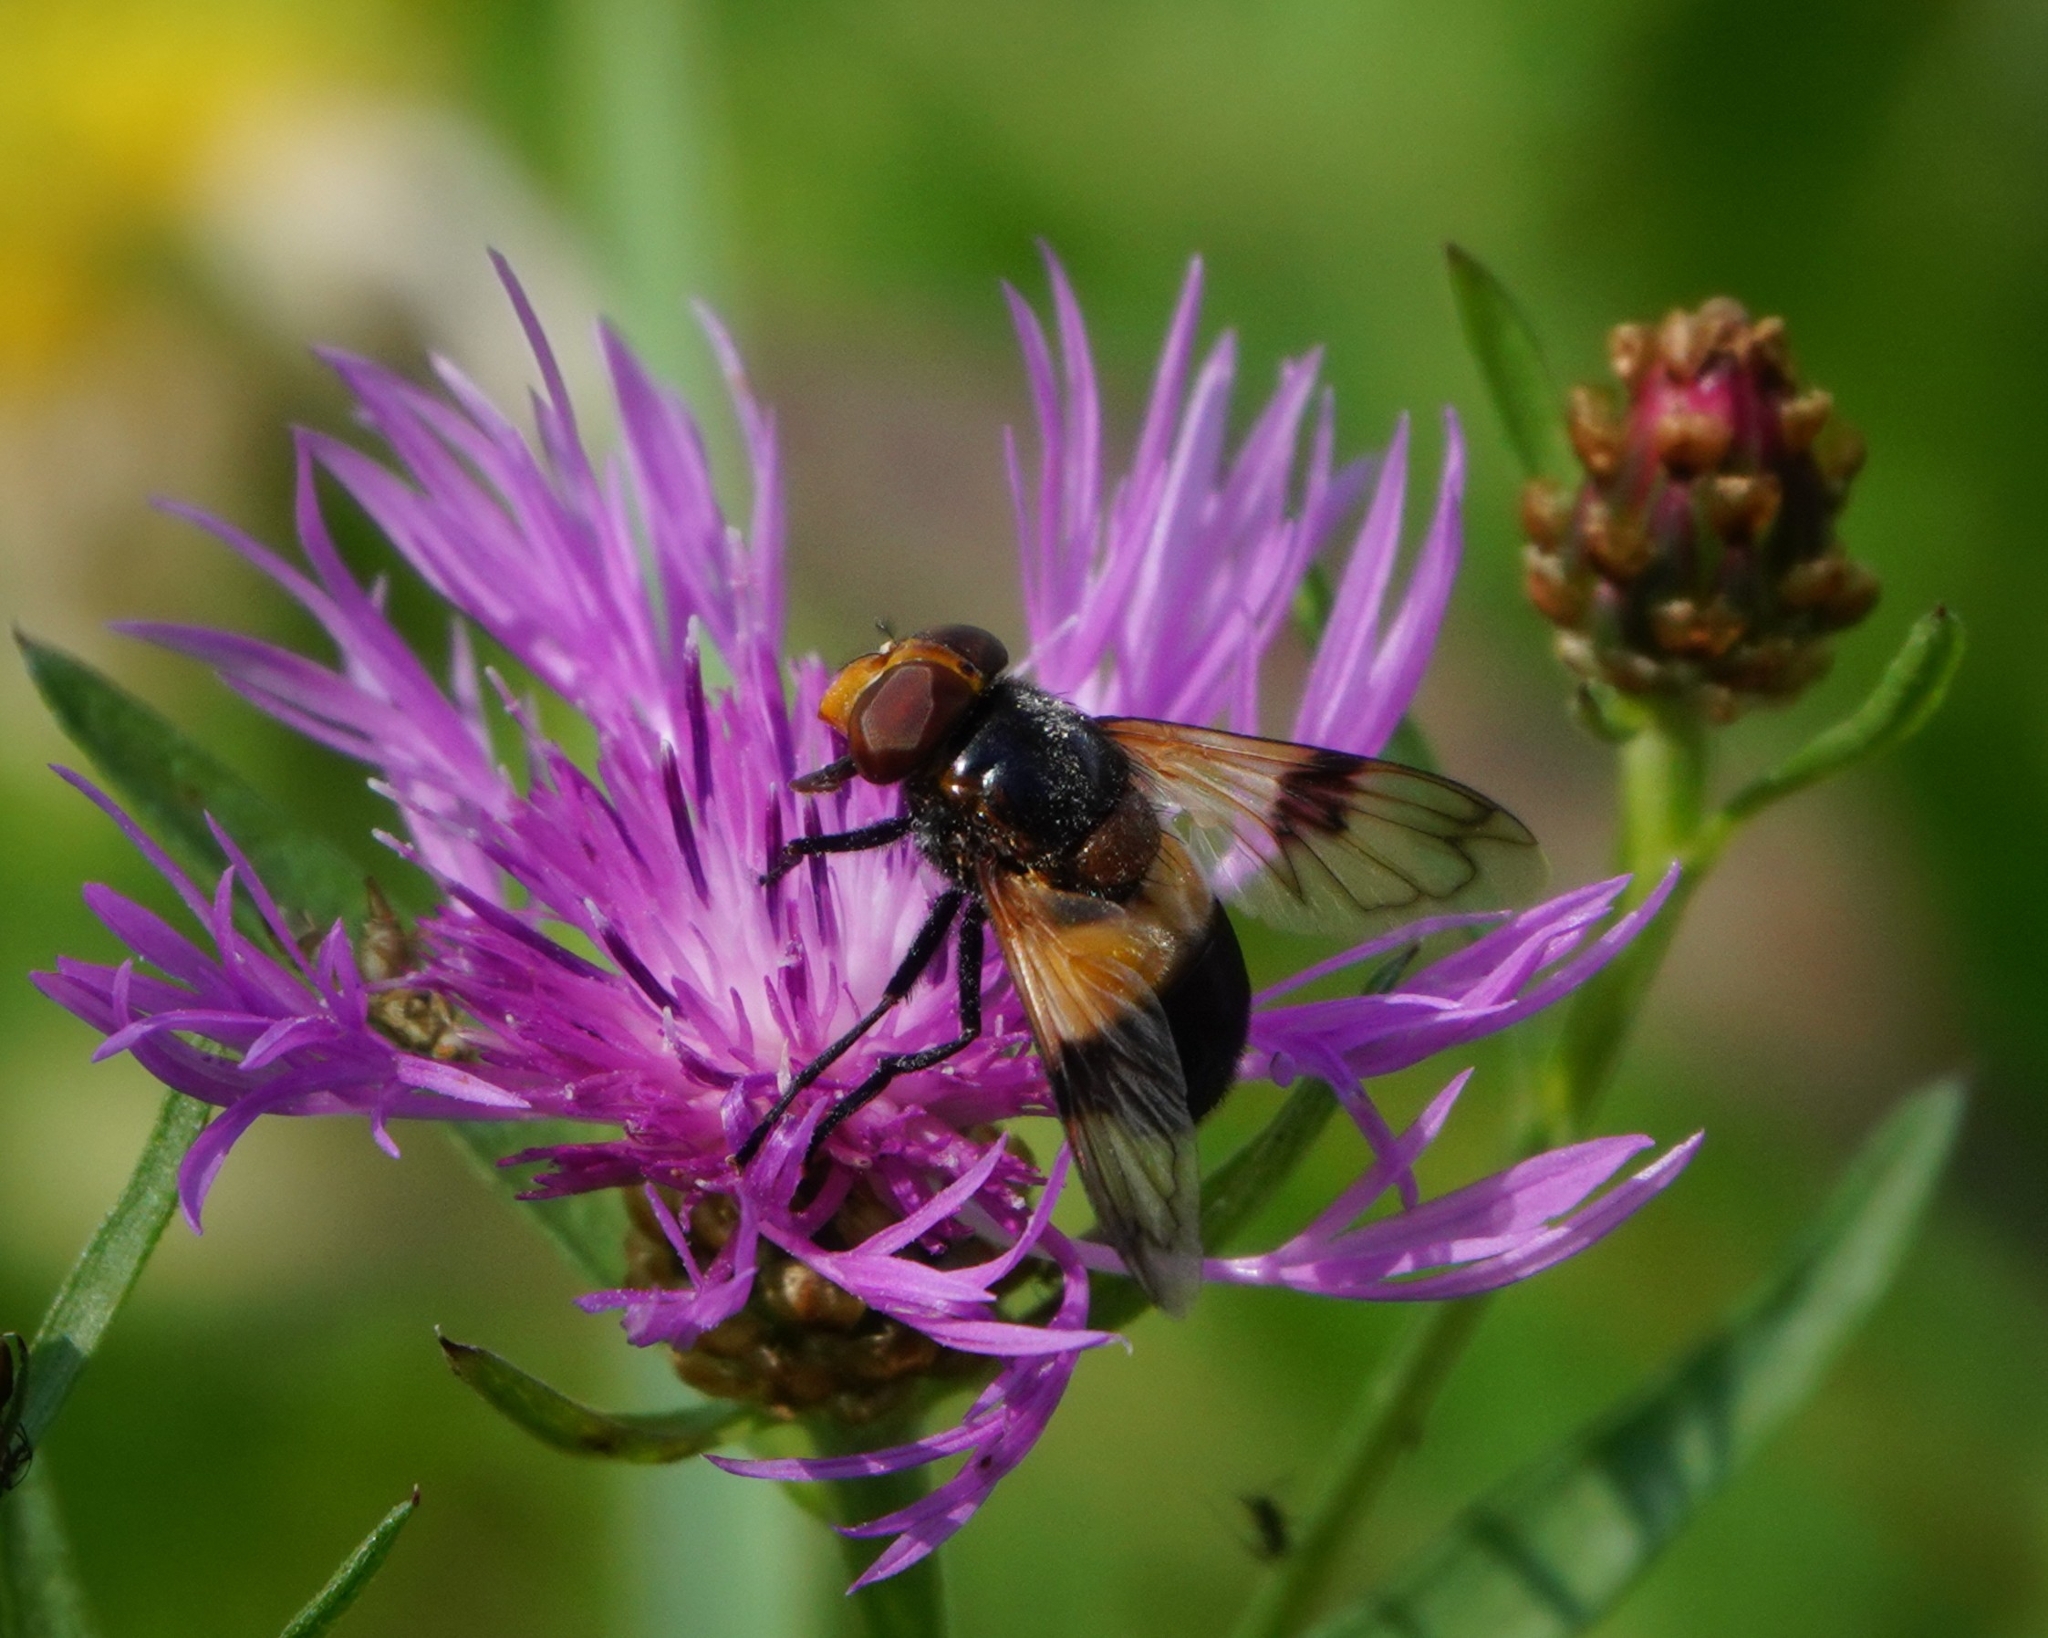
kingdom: Animalia
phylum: Arthropoda
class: Insecta
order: Diptera
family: Syrphidae
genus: Volucella
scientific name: Volucella pellucens
